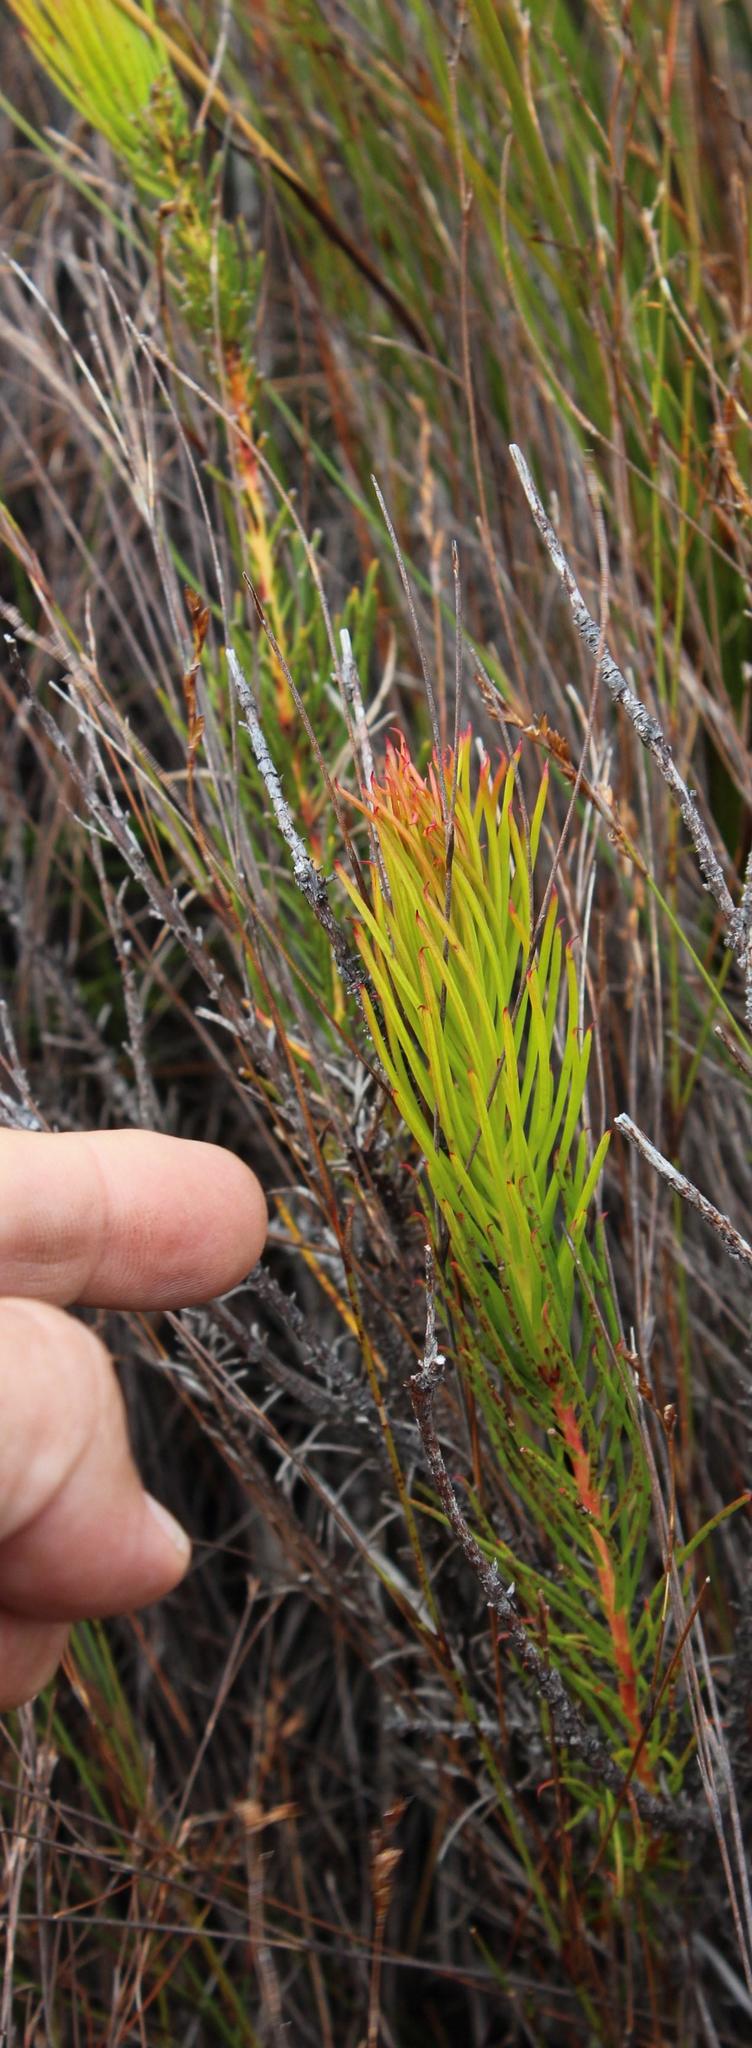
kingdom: Plantae
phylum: Tracheophyta
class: Magnoliopsida
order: Proteales
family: Proteaceae
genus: Protea
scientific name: Protea subulifolia
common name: Awl-leaf sugarbush
